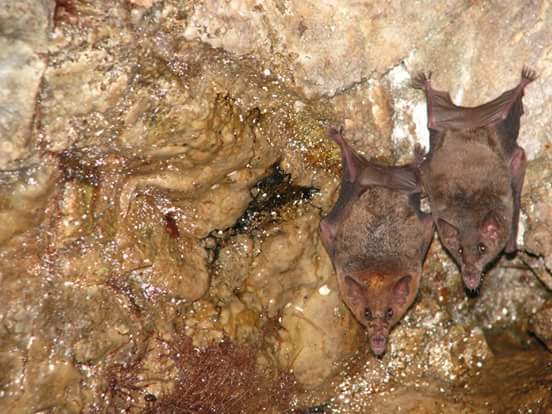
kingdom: Animalia
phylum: Chordata
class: Mammalia
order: Chiroptera
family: Phyllostomidae
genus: Choeronycteris
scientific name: Choeronycteris mexicana
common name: Mexican long-tongued bat
